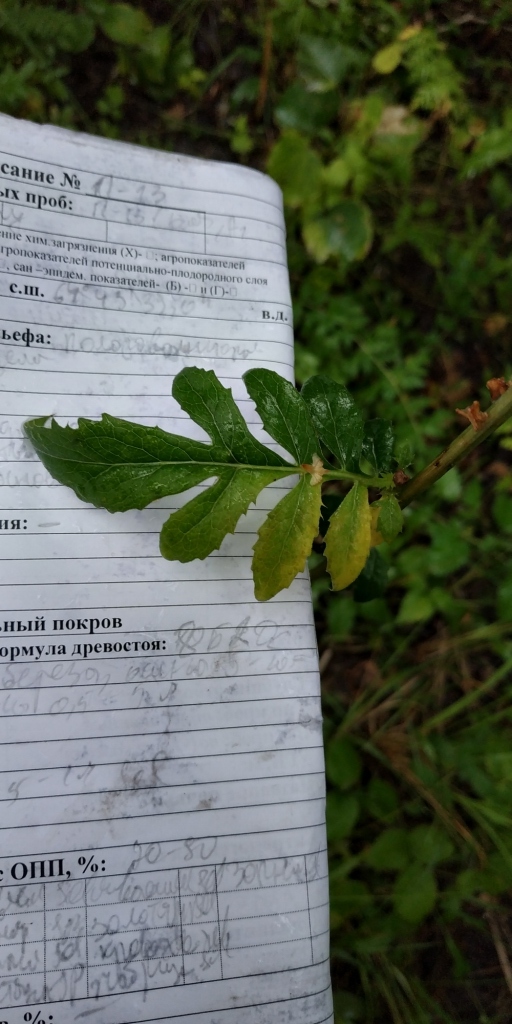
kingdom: Plantae
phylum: Tracheophyta
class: Magnoliopsida
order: Asterales
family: Asteraceae
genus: Serratula
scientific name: Serratula coronata
